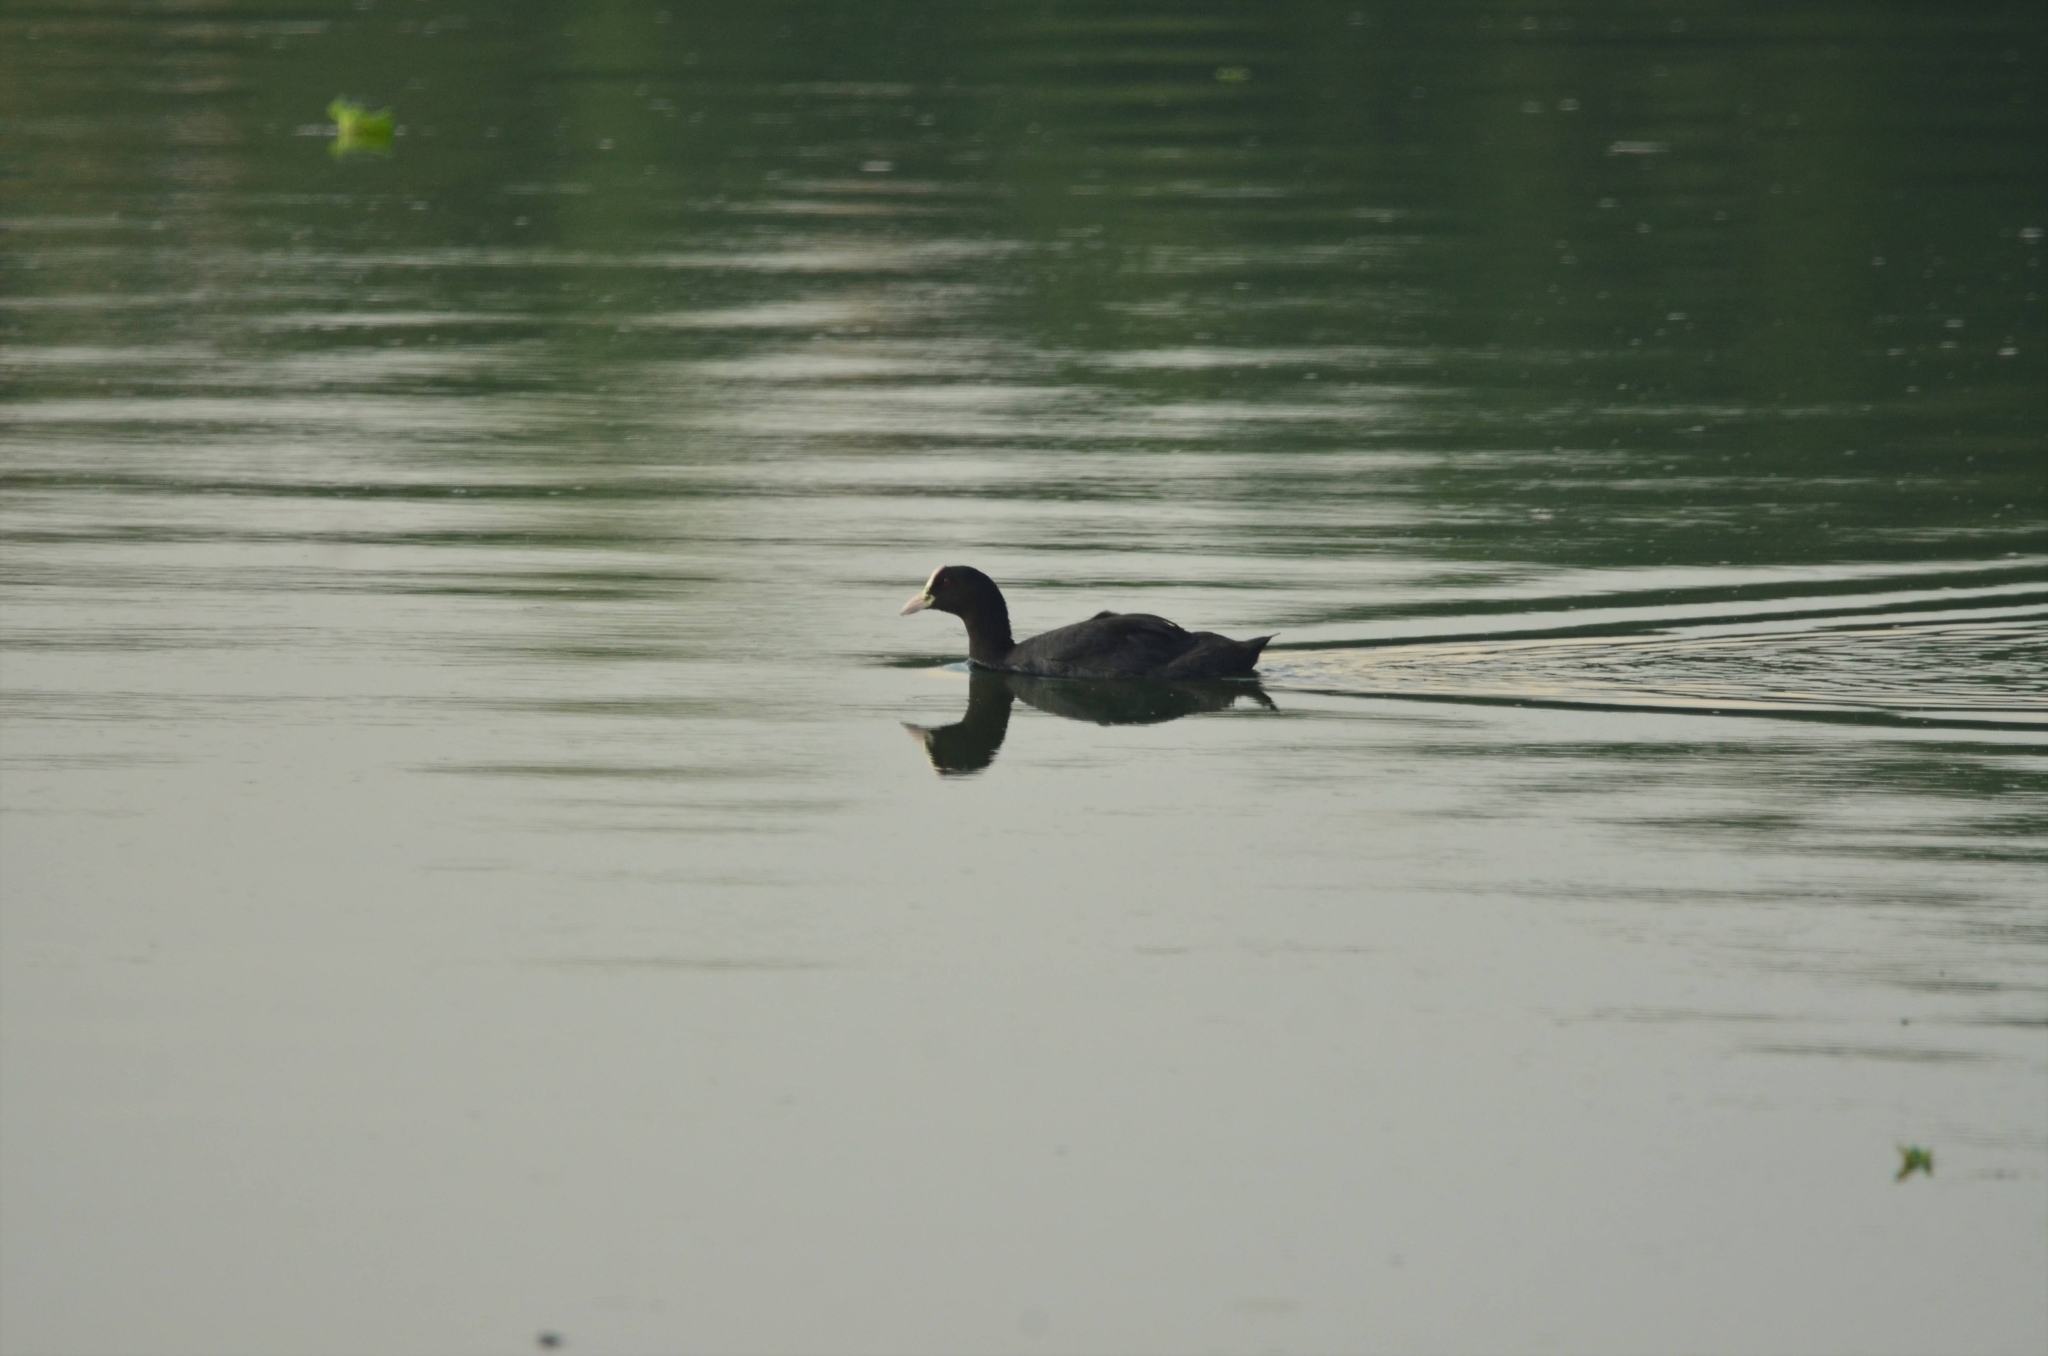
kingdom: Animalia
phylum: Chordata
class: Aves
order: Gruiformes
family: Rallidae
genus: Fulica
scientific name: Fulica atra
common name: Eurasian coot
